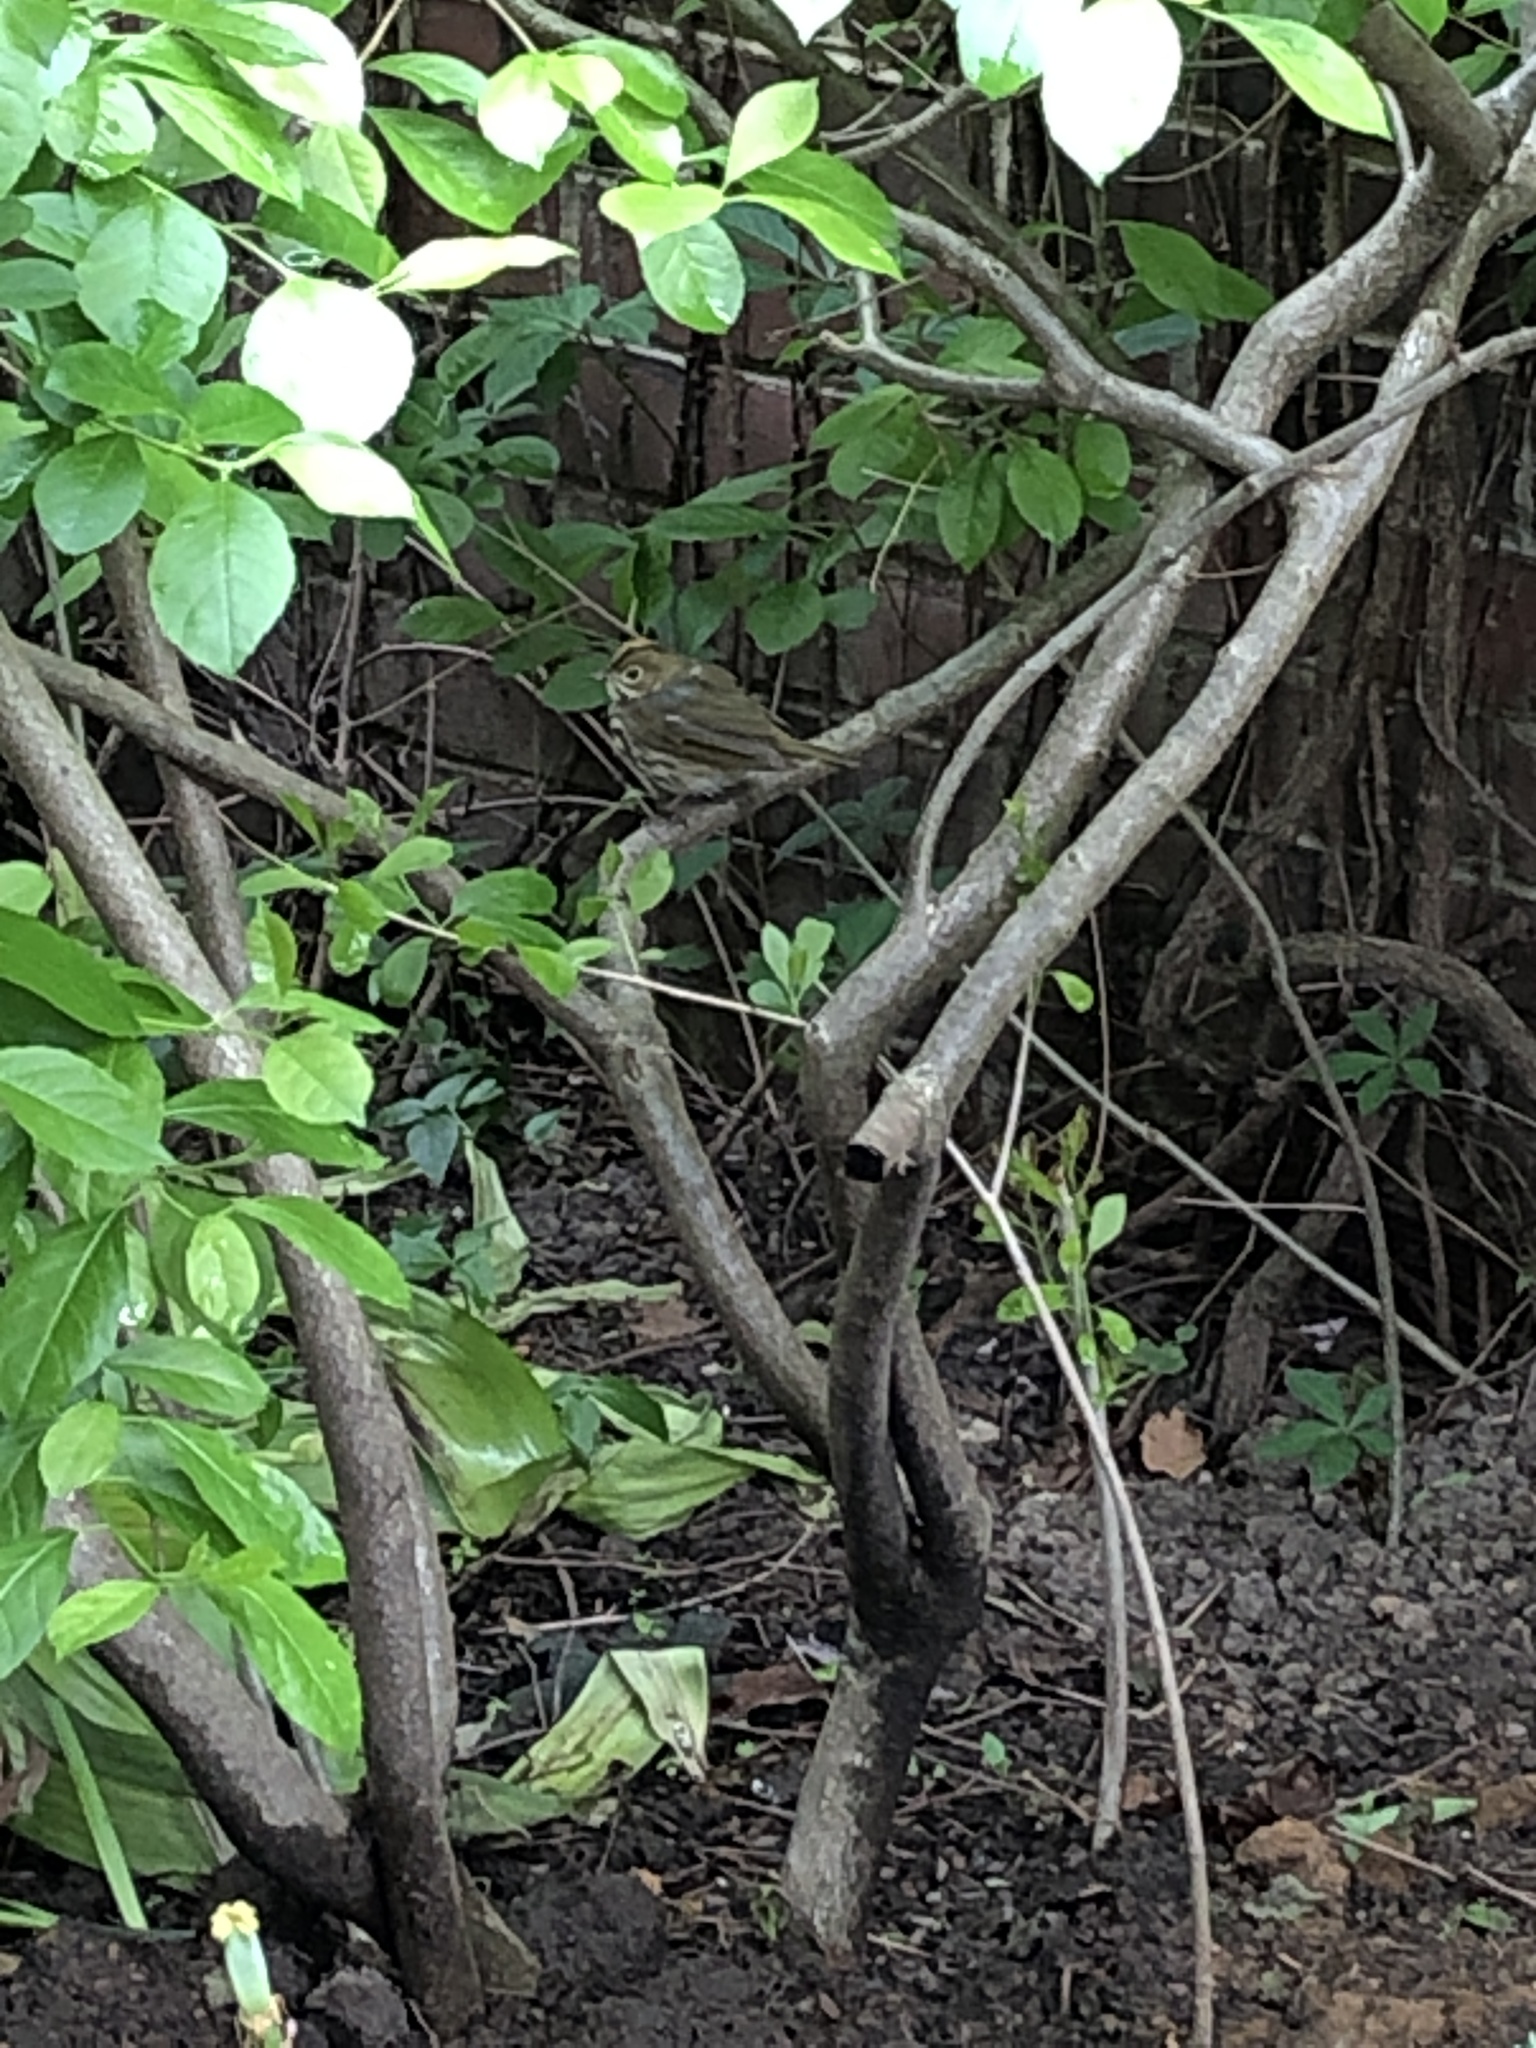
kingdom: Animalia
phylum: Chordata
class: Aves
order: Passeriformes
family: Parulidae
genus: Seiurus
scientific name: Seiurus aurocapilla
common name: Ovenbird
